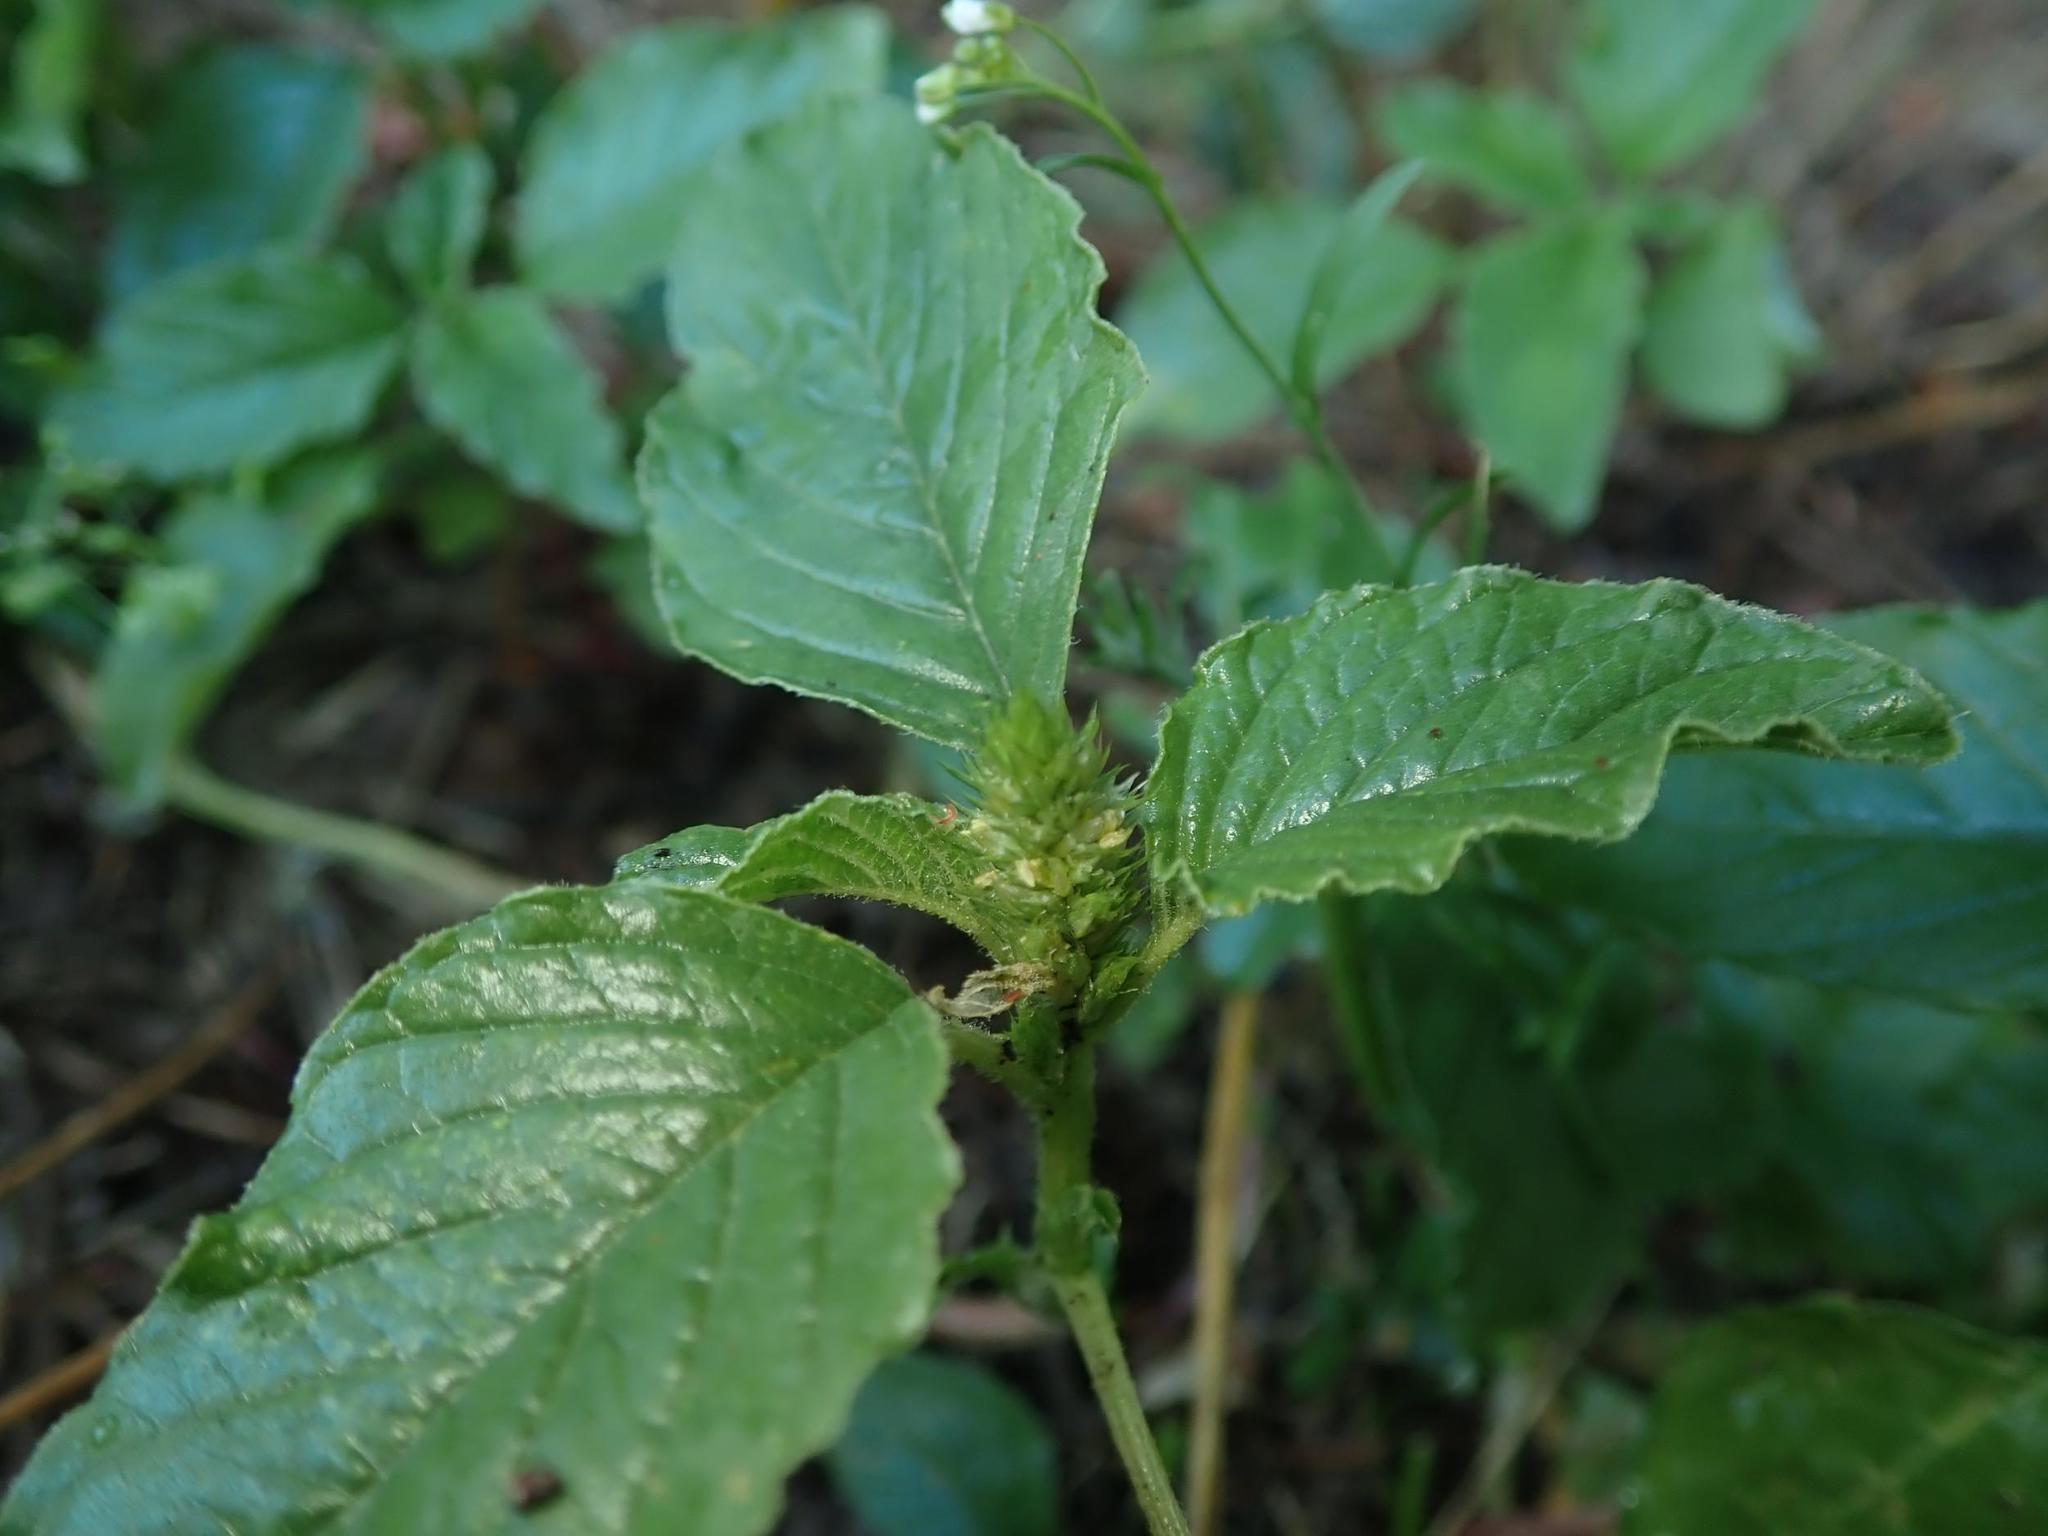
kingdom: Plantae
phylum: Tracheophyta
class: Magnoliopsida
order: Caryophyllales
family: Amaranthaceae
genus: Amaranthus
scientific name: Amaranthus retroflexus
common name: Redroot amaranth
